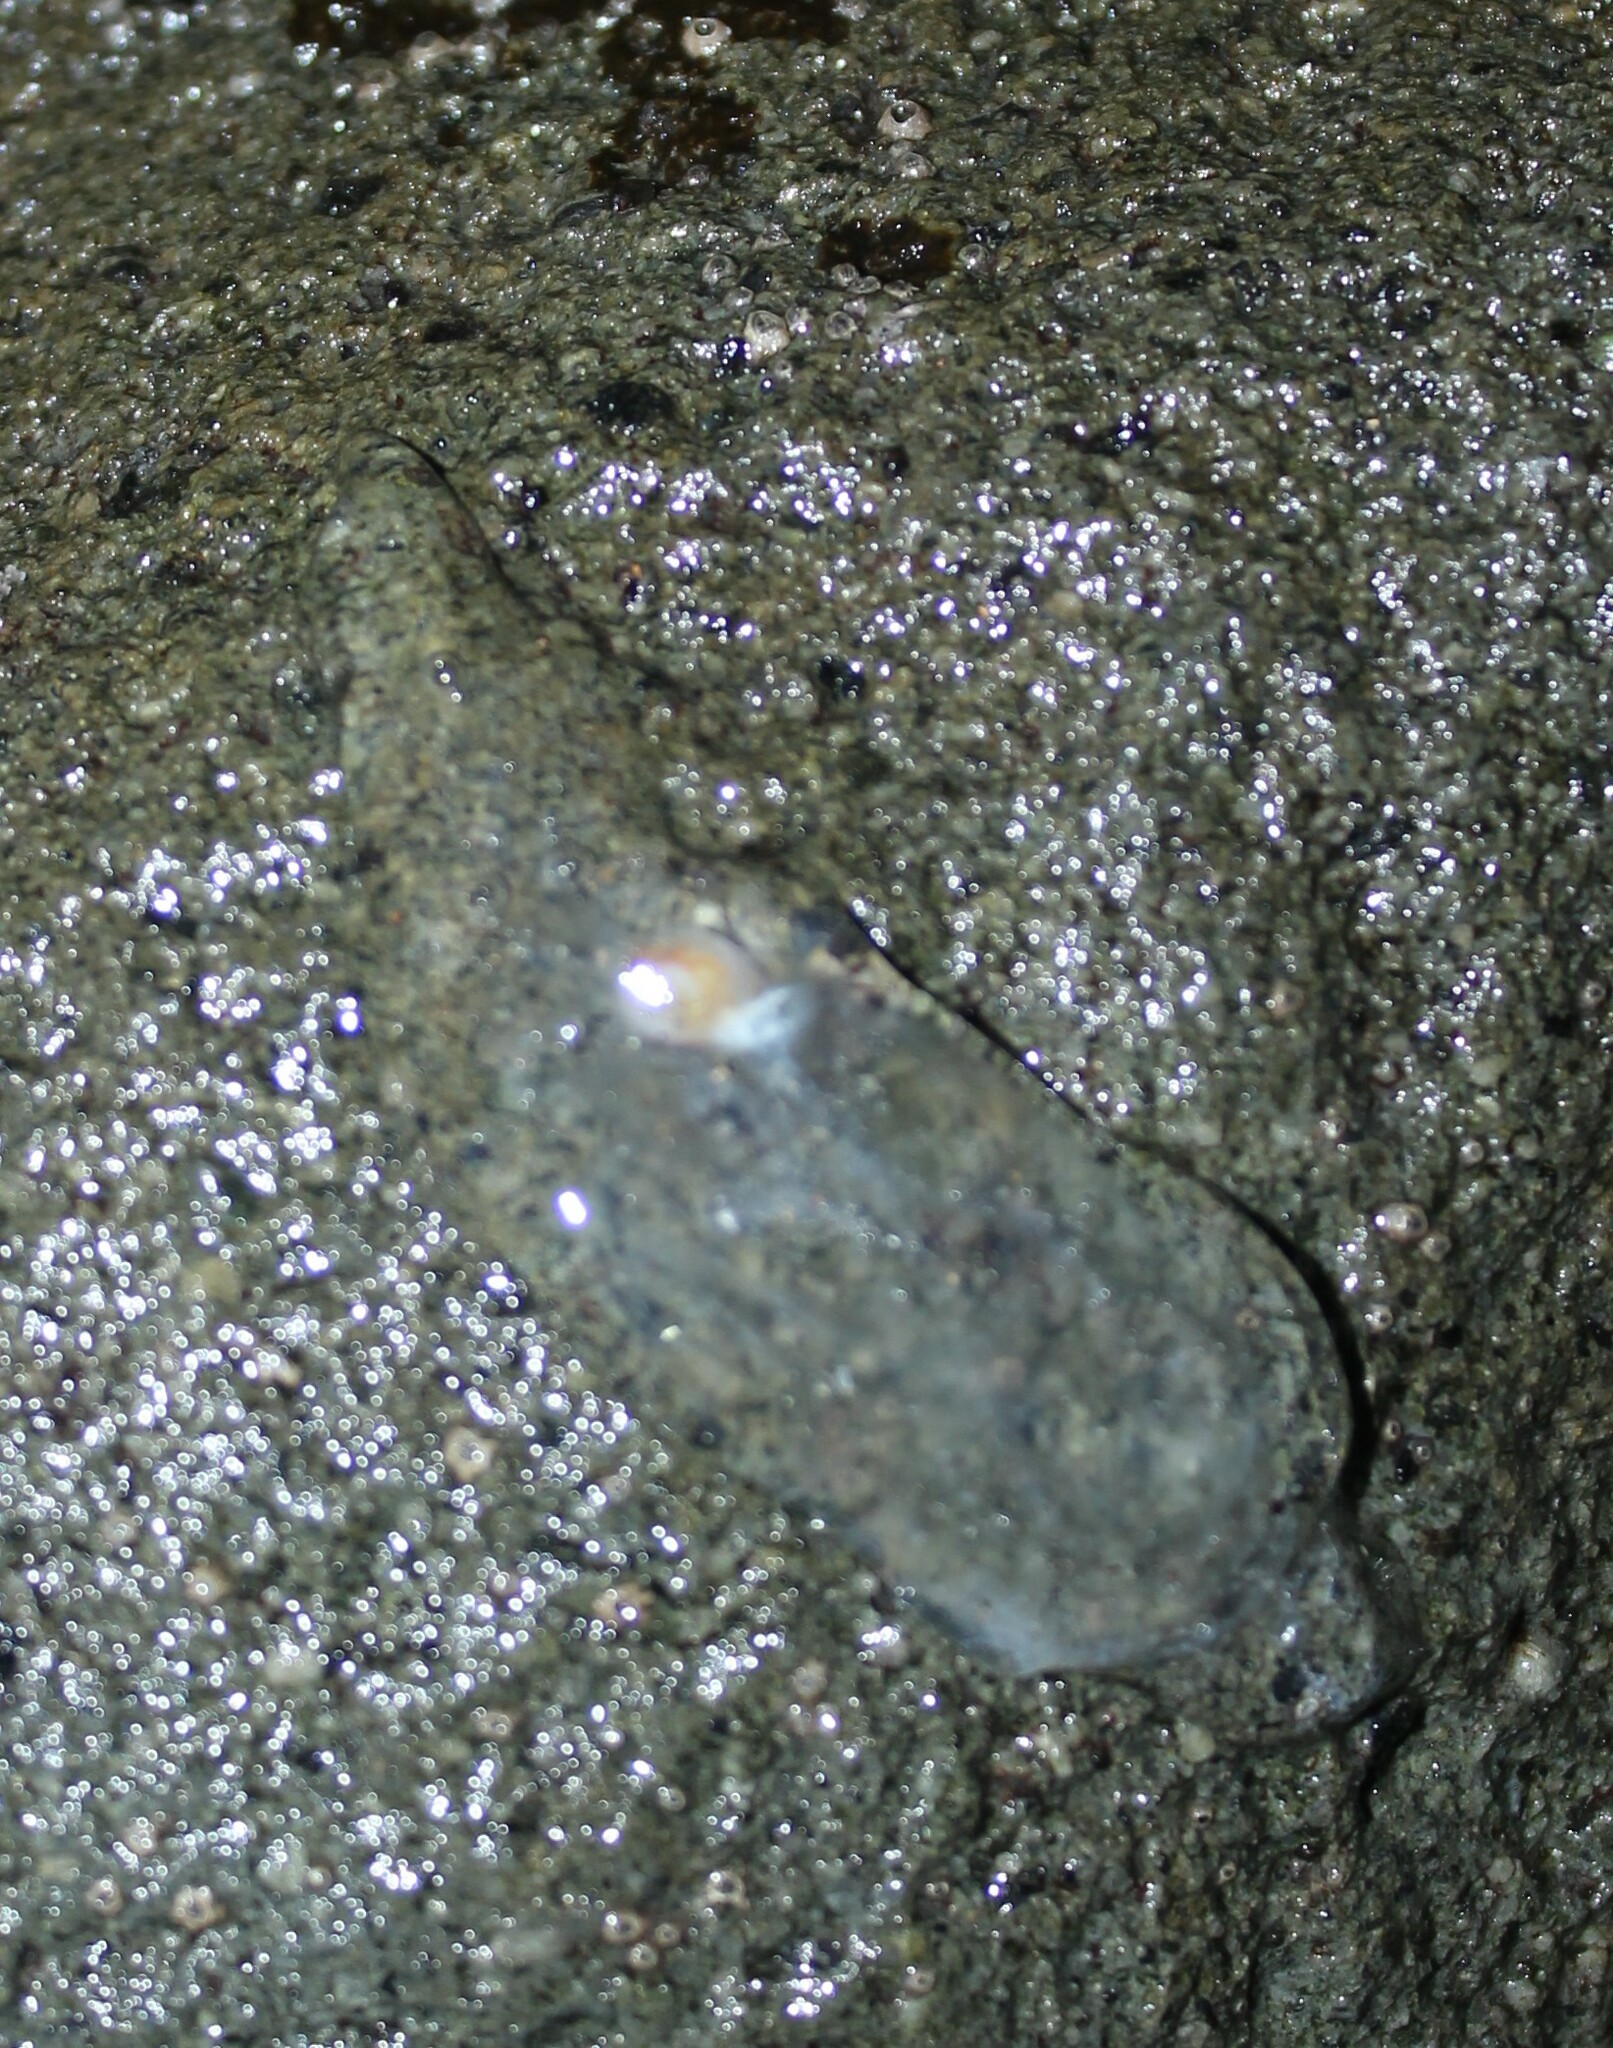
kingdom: Animalia
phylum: Chordata
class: Thaliacea
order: Salpida
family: Salpidae
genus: Soestia
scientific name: Soestia zonaria
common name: Deepsea solitary salp
